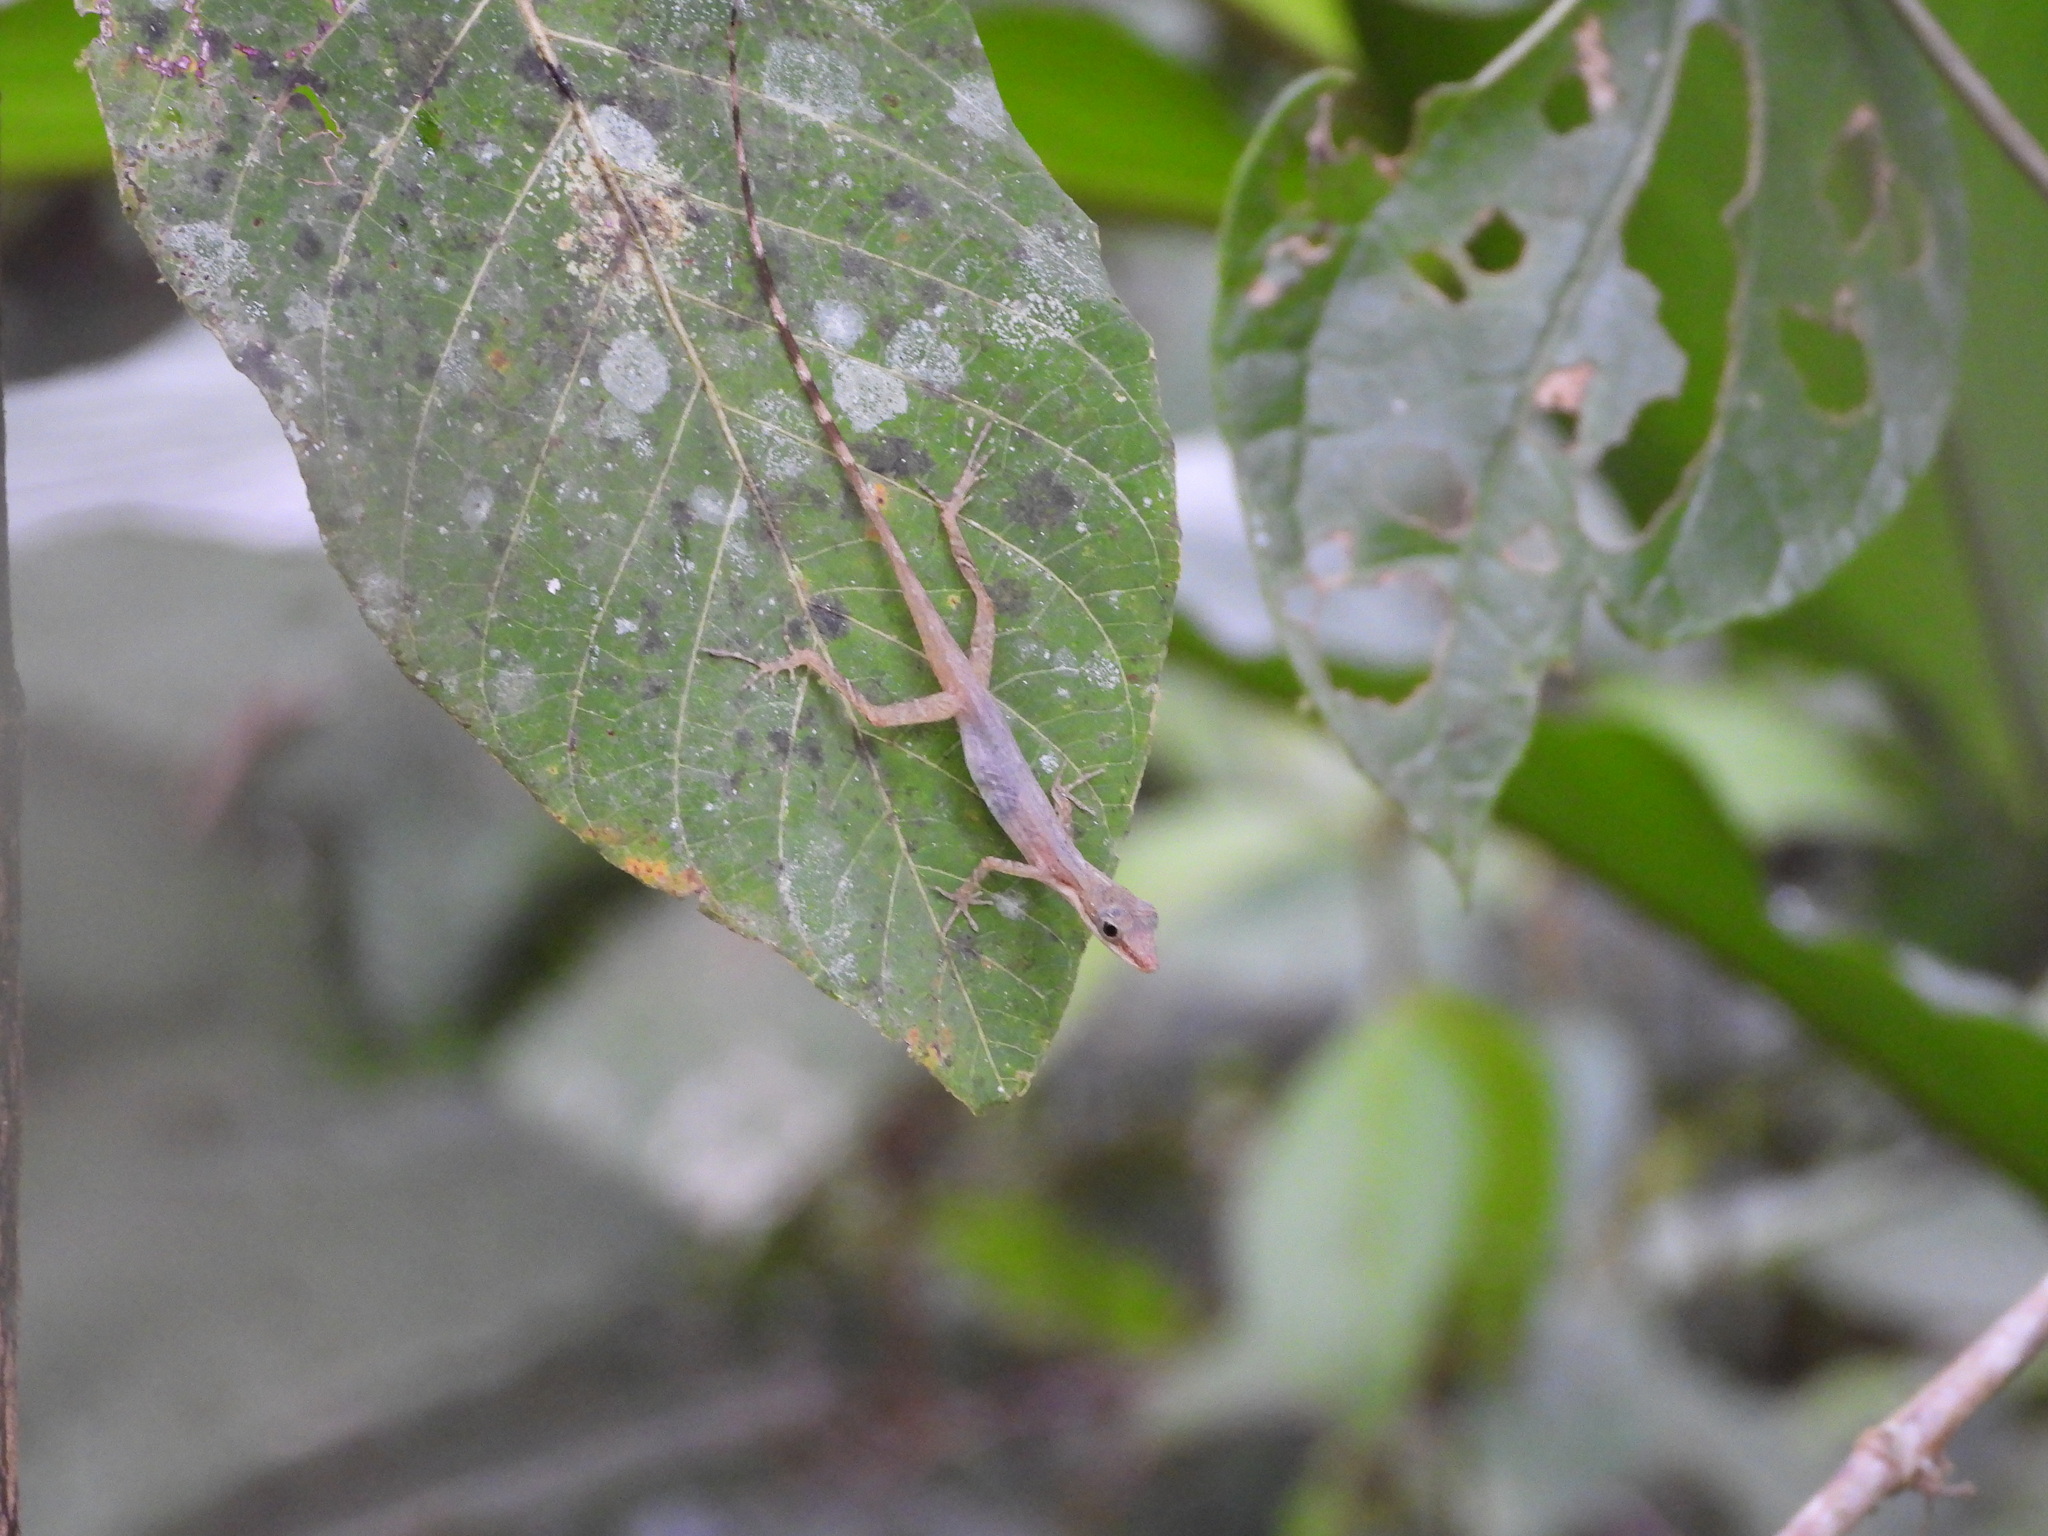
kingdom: Animalia
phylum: Chordata
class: Squamata
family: Dactyloidae
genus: Anolis
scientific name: Anolis limifrons
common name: Border anole
